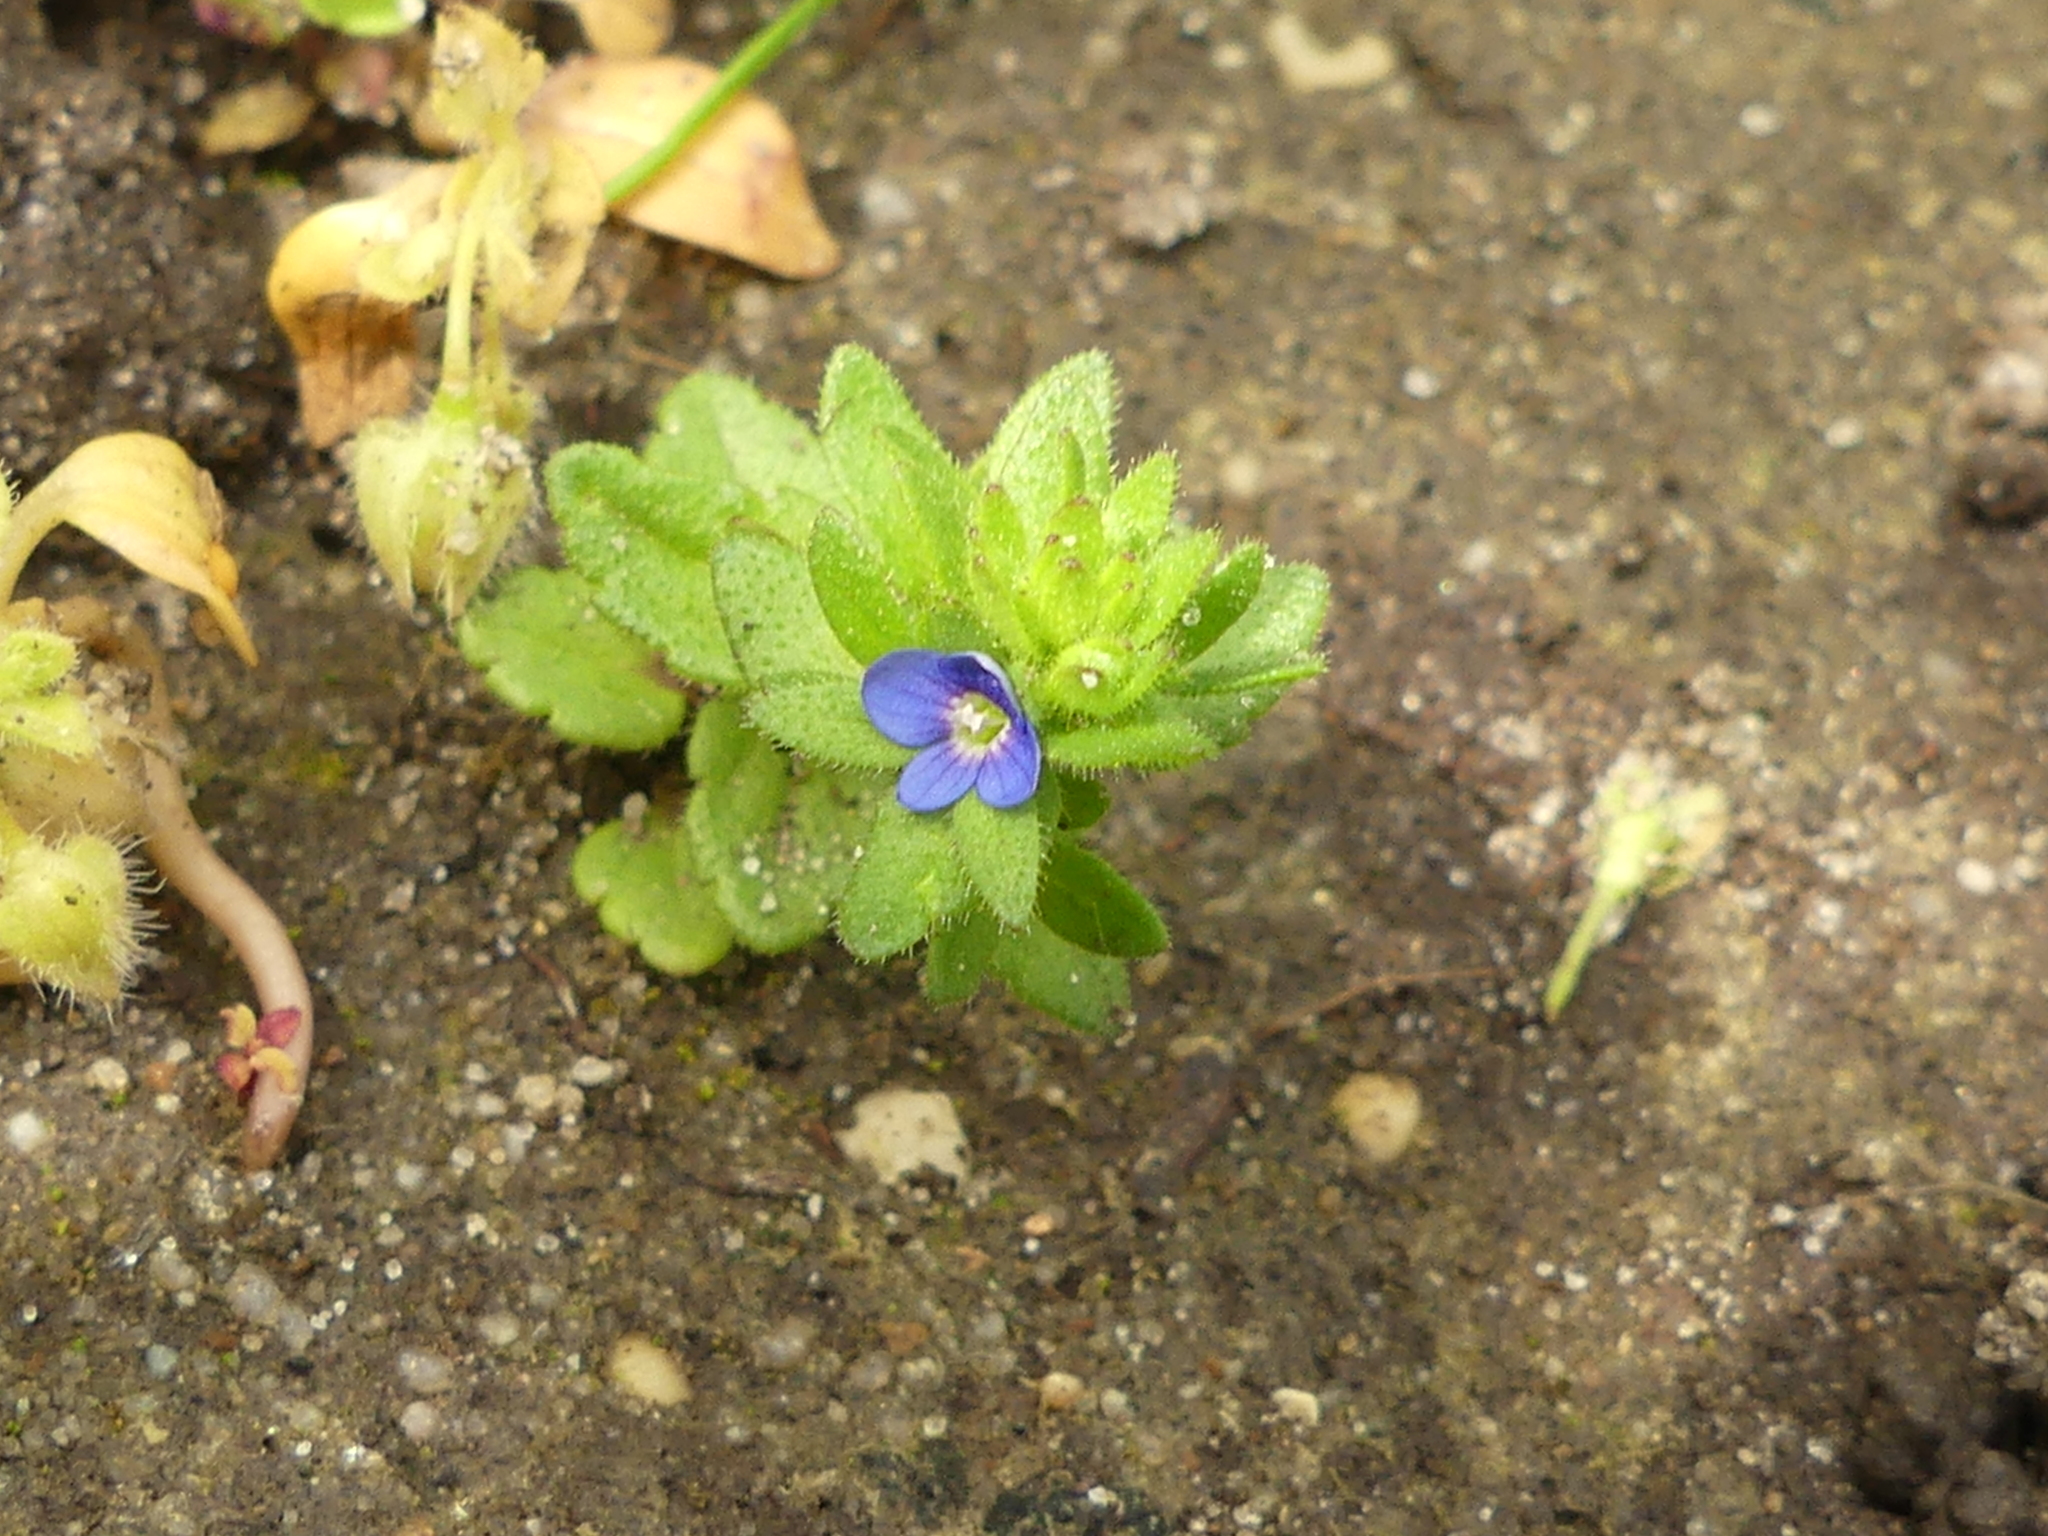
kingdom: Plantae
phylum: Tracheophyta
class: Magnoliopsida
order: Lamiales
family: Plantaginaceae
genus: Veronica
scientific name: Veronica arvensis
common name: Corn speedwell
